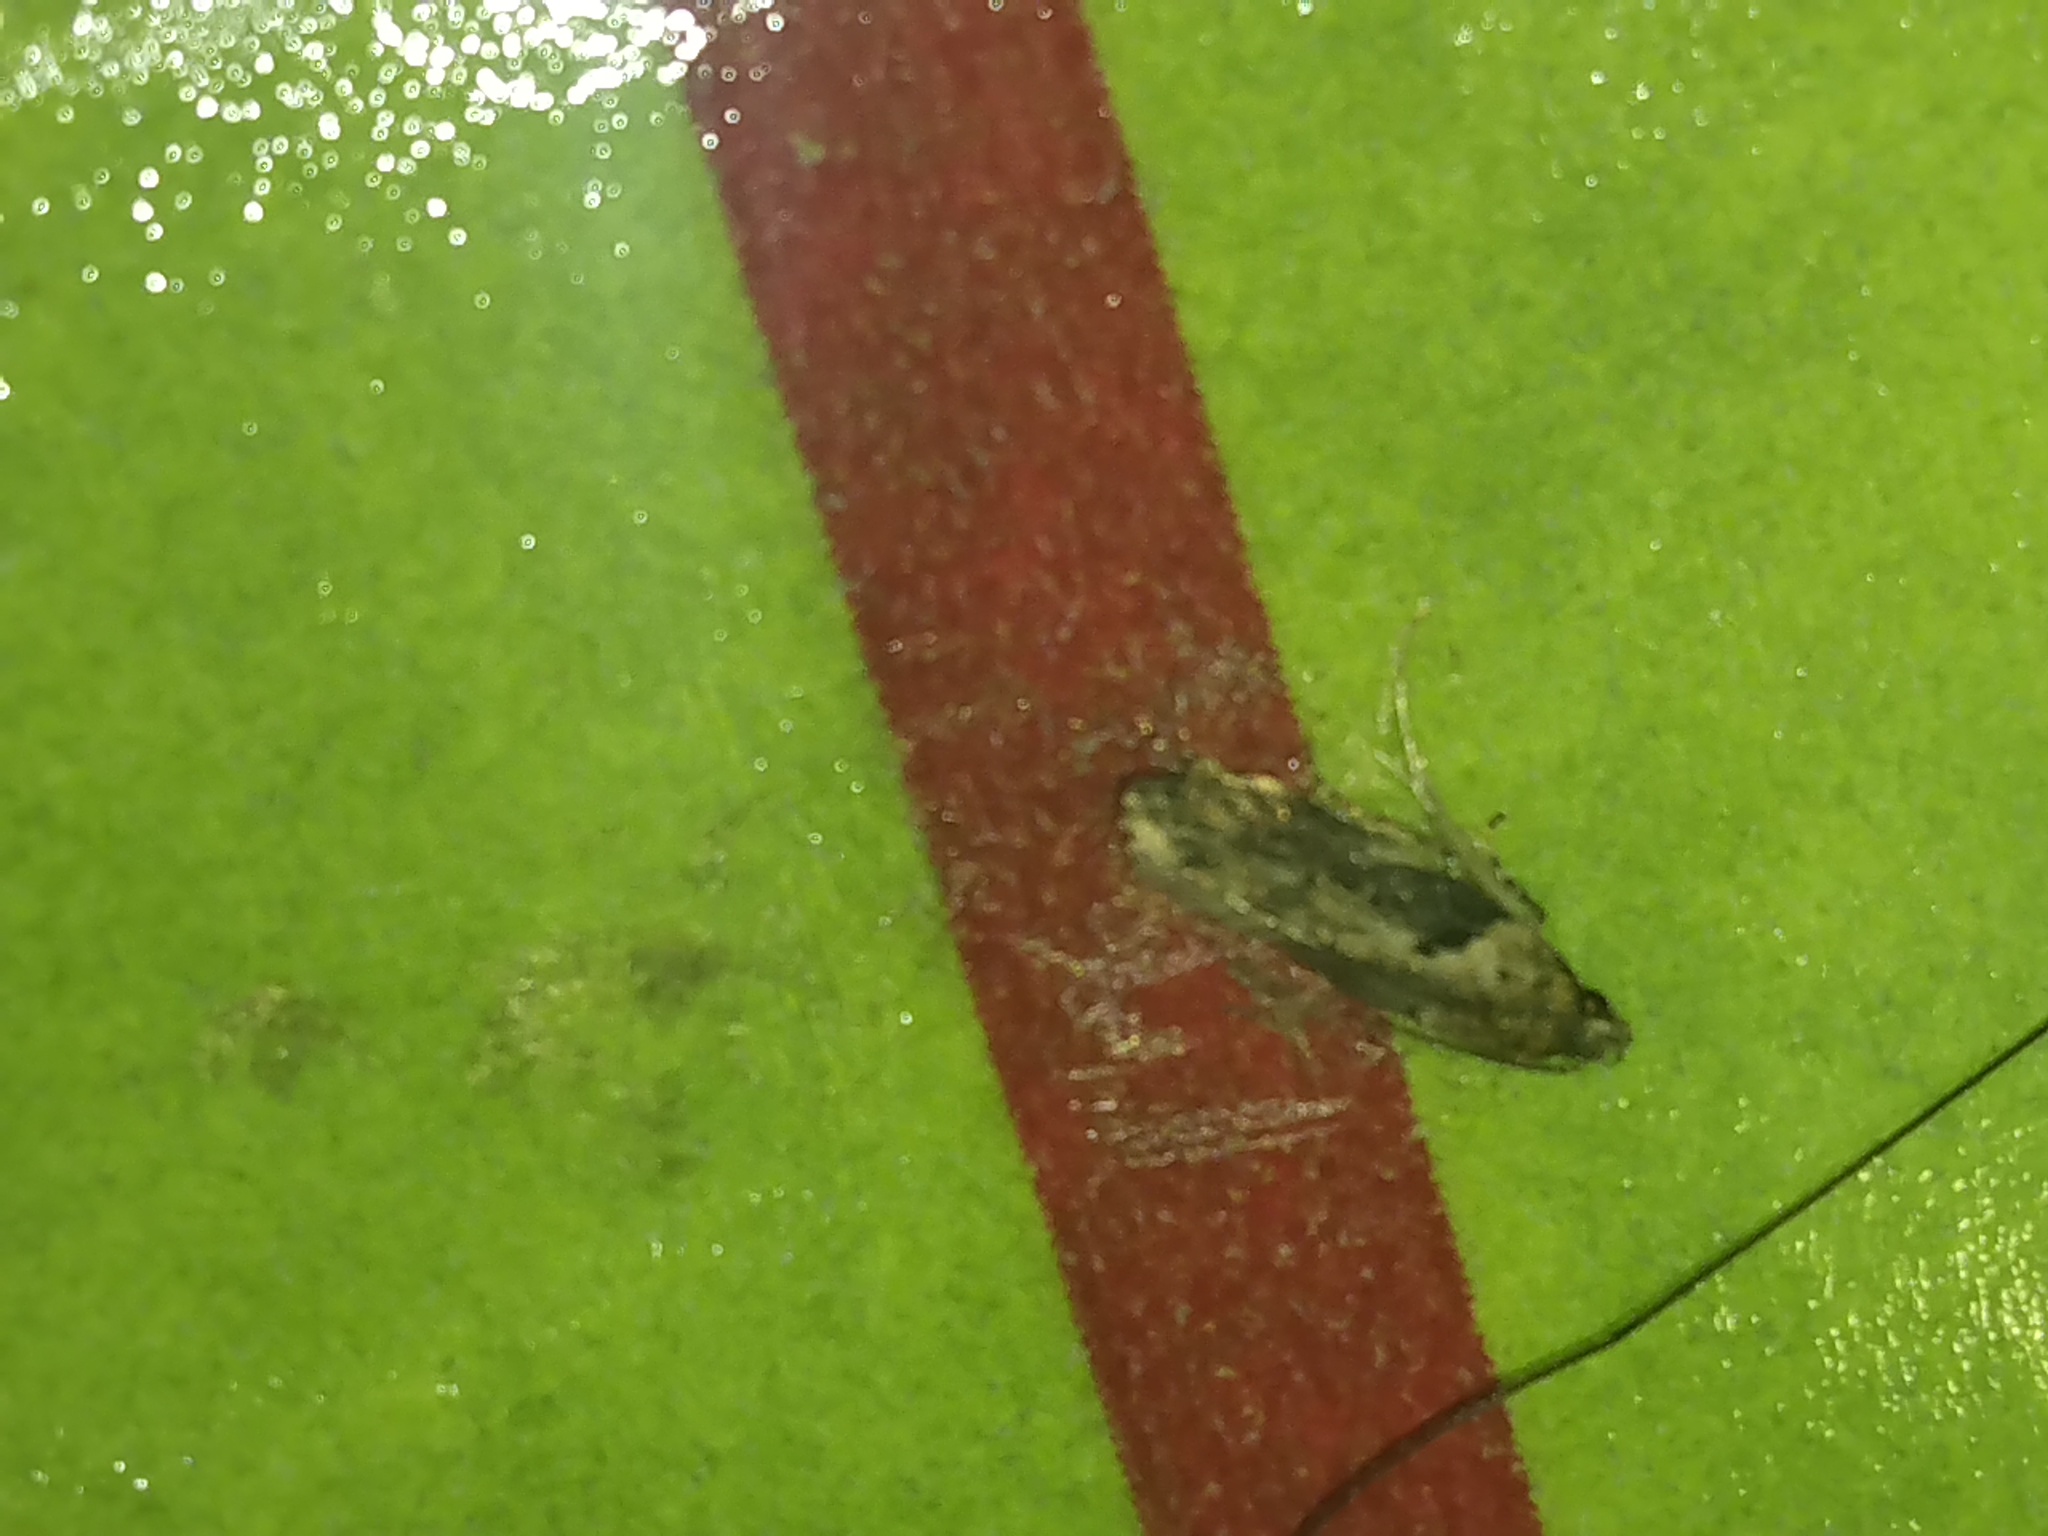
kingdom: Animalia
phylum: Arthropoda
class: Insecta
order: Lepidoptera
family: Depressariidae
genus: Antaeotricha
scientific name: Antaeotricha humilis
